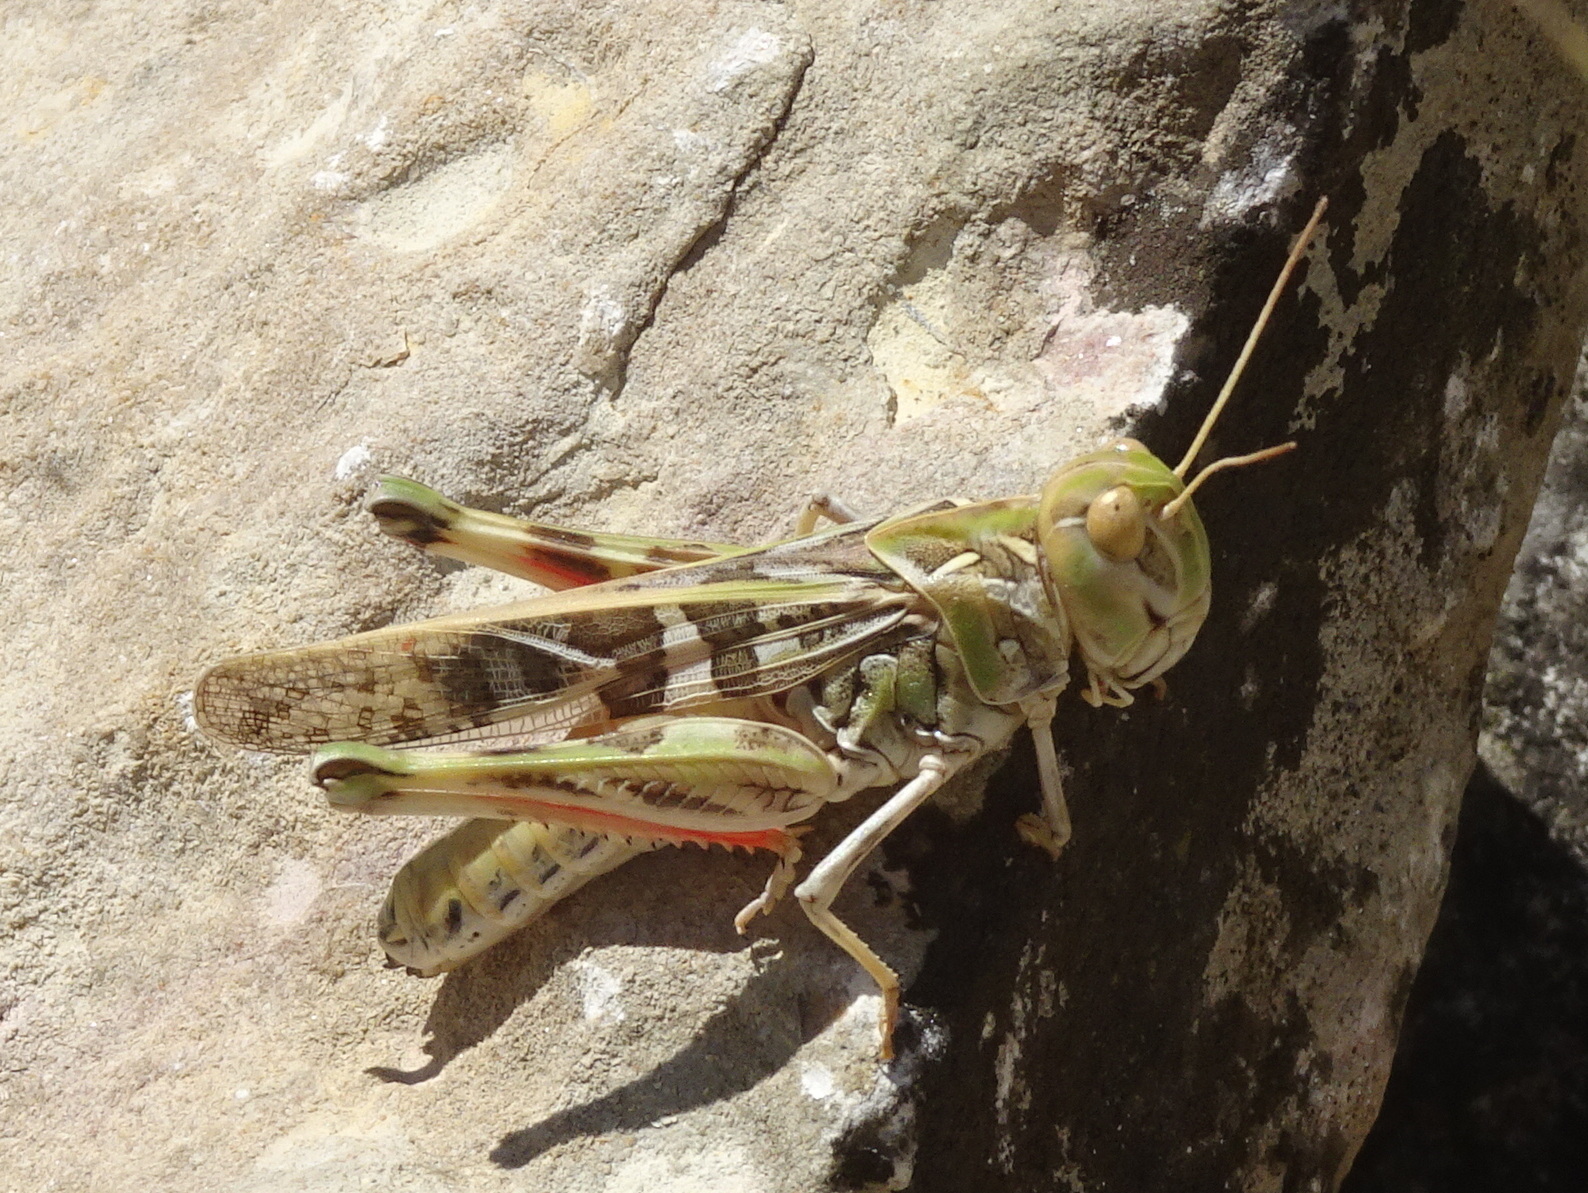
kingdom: Animalia
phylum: Arthropoda
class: Insecta
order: Orthoptera
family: Acrididae
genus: Oedaleus
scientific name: Oedaleus decorus
